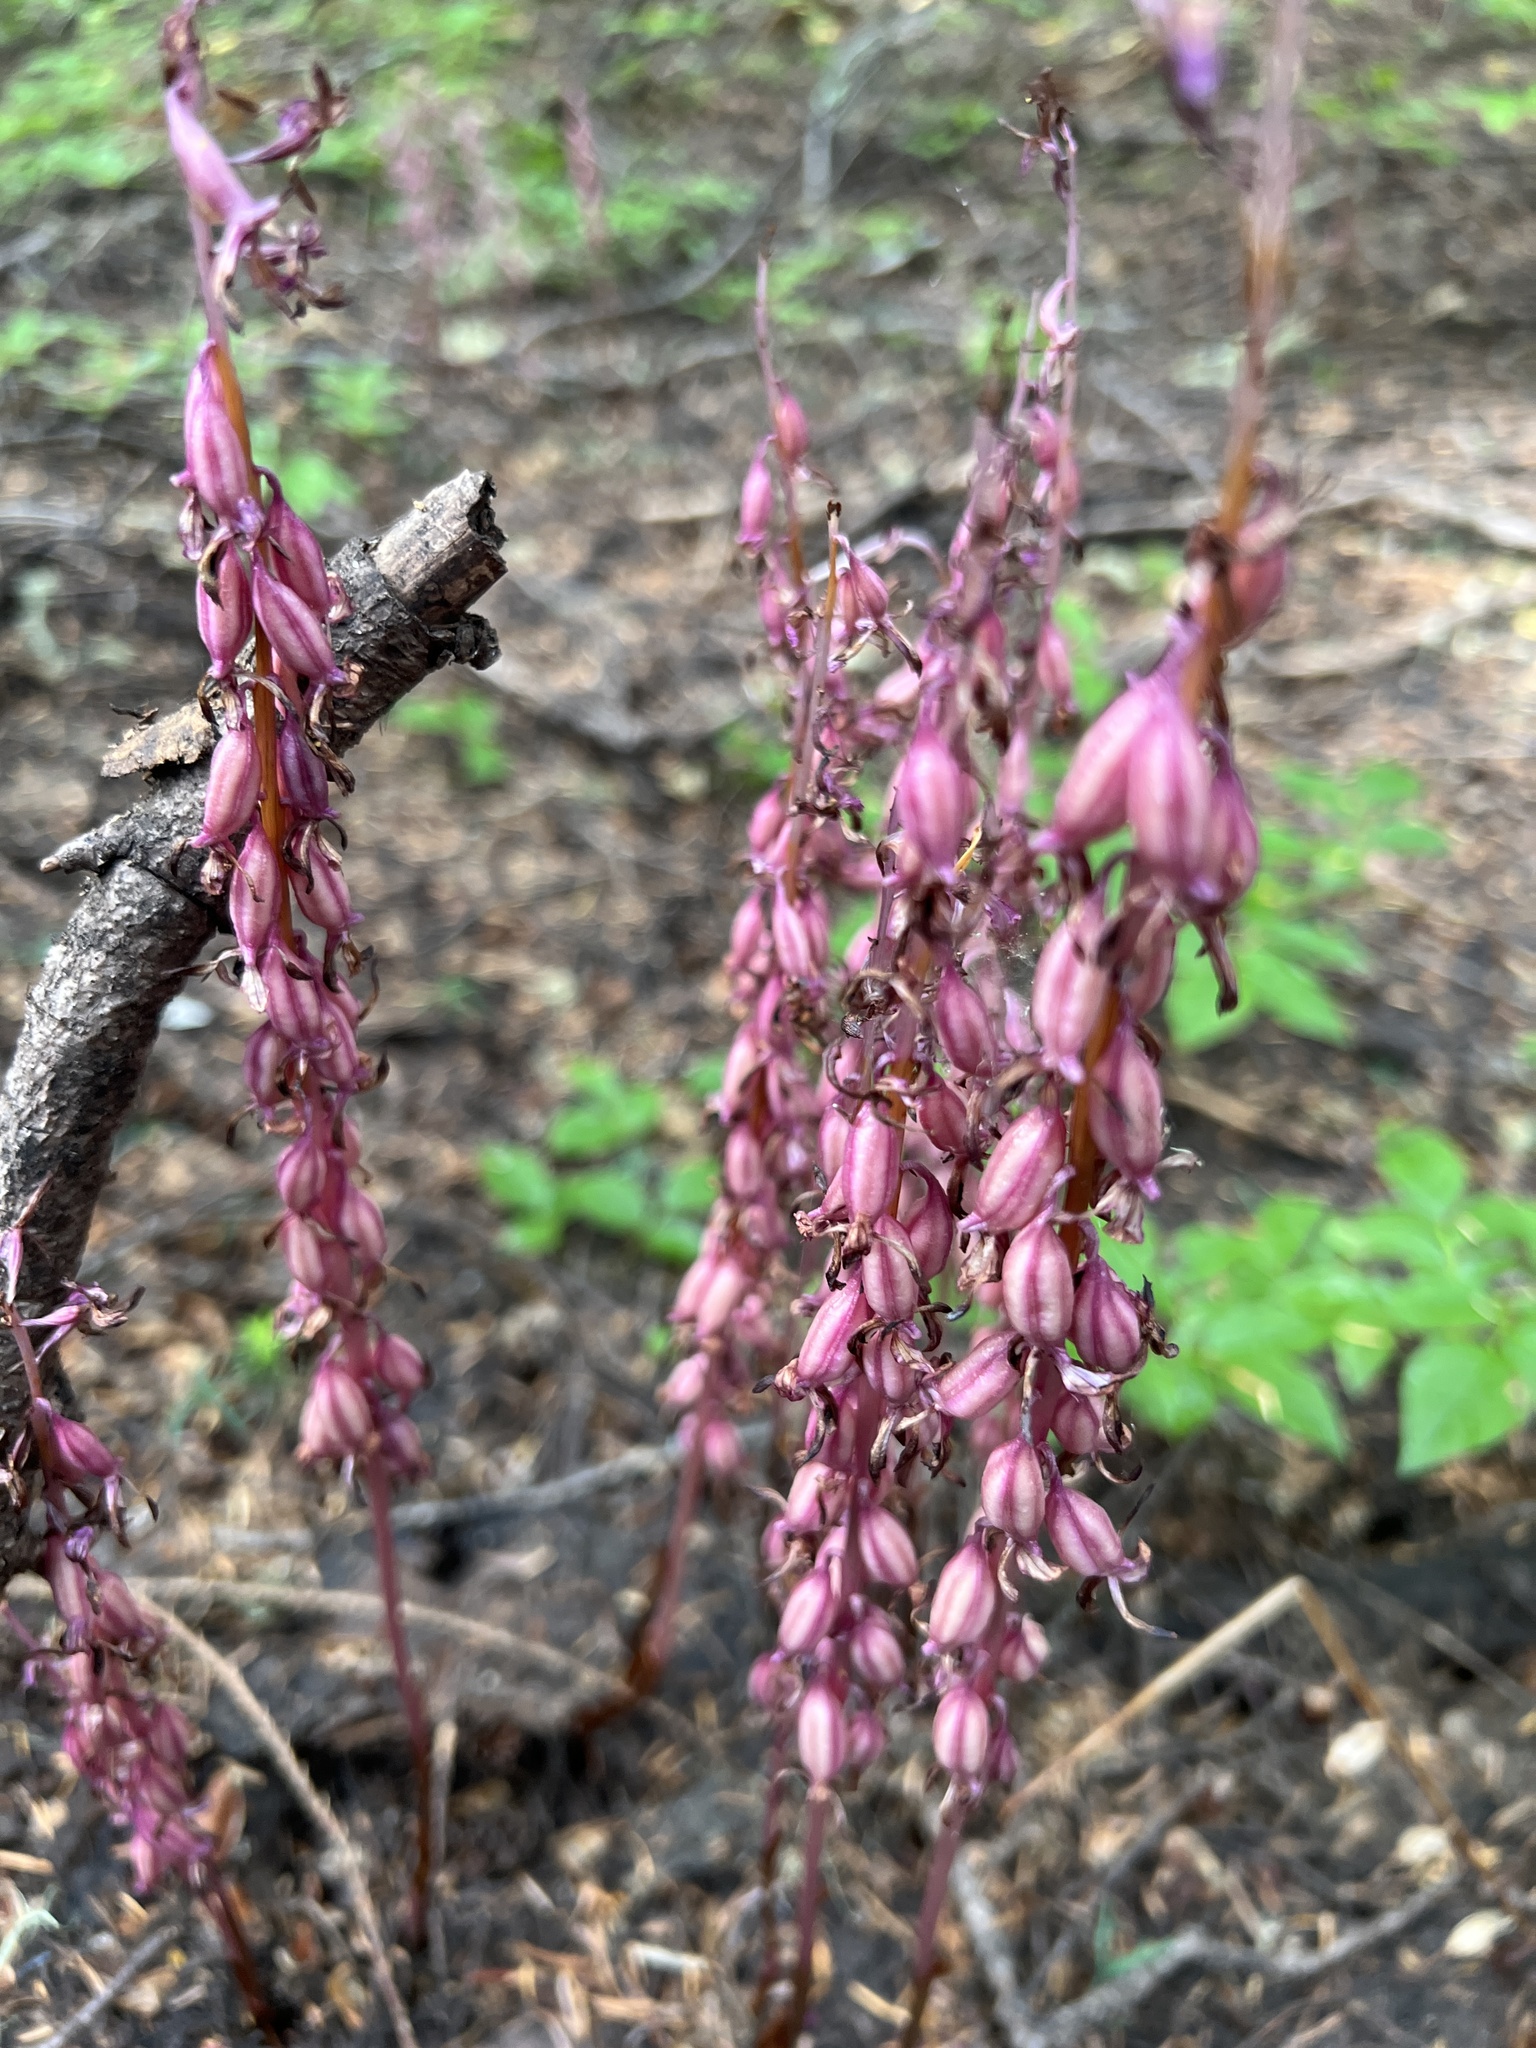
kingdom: Plantae
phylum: Tracheophyta
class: Liliopsida
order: Asparagales
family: Orchidaceae
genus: Corallorhiza
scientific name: Corallorhiza mertensiana
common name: Pacific coralroot
